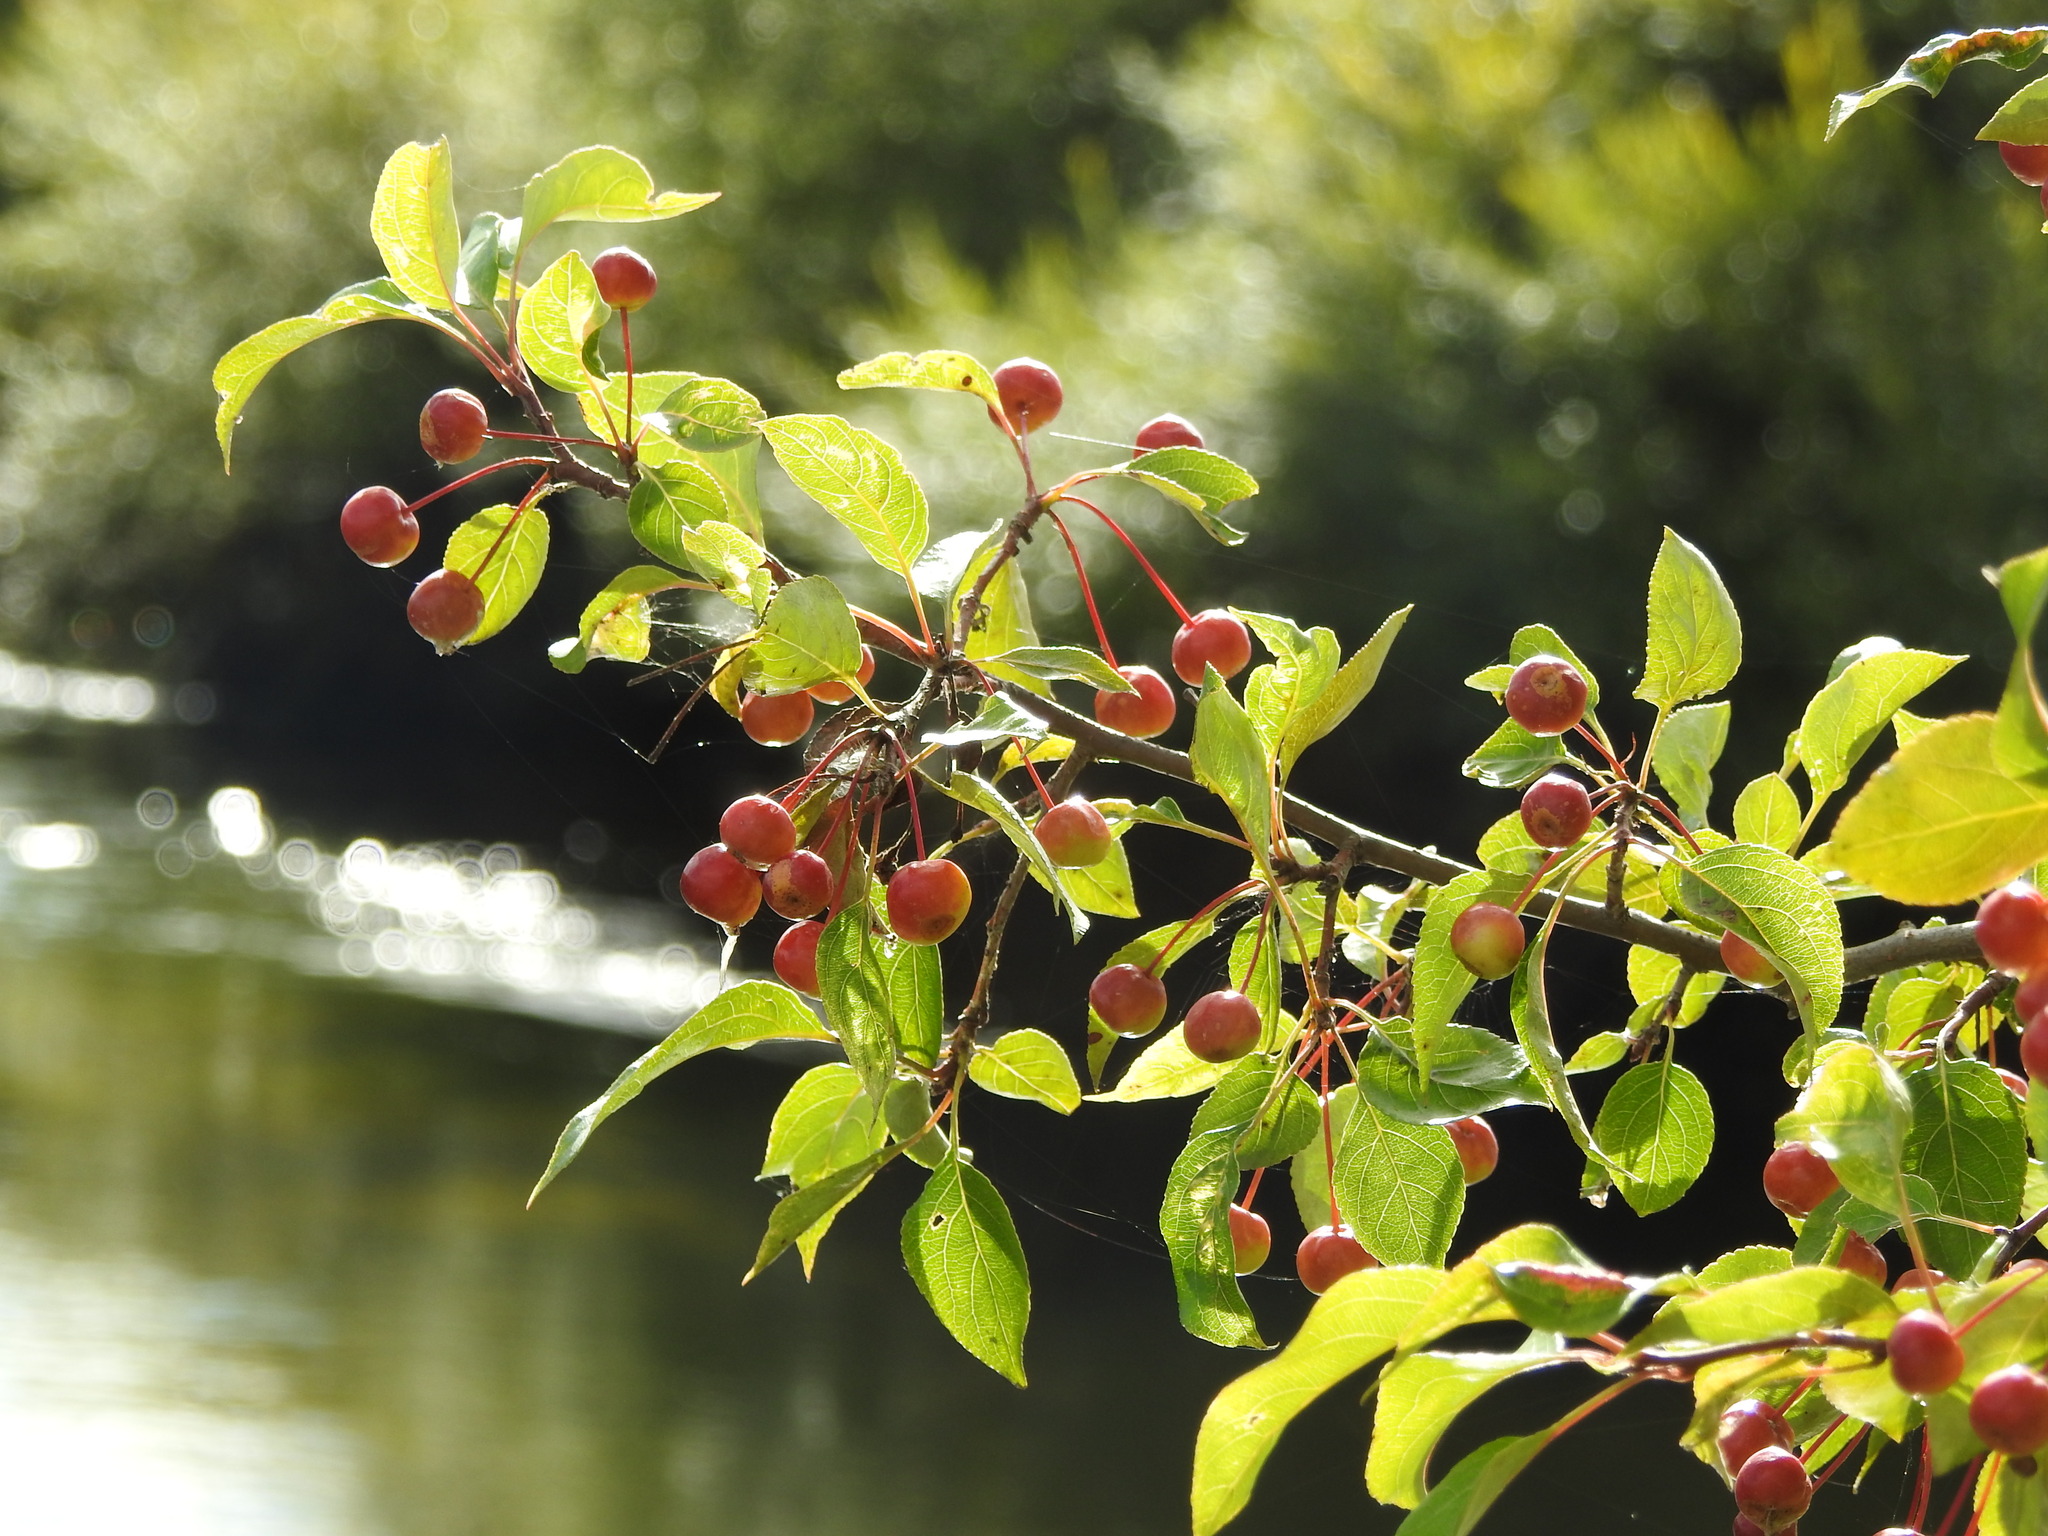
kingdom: Plantae
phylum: Tracheophyta
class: Magnoliopsida
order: Rosales
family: Rosaceae
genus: Malus
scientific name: Malus baccata
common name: Siberian crab
